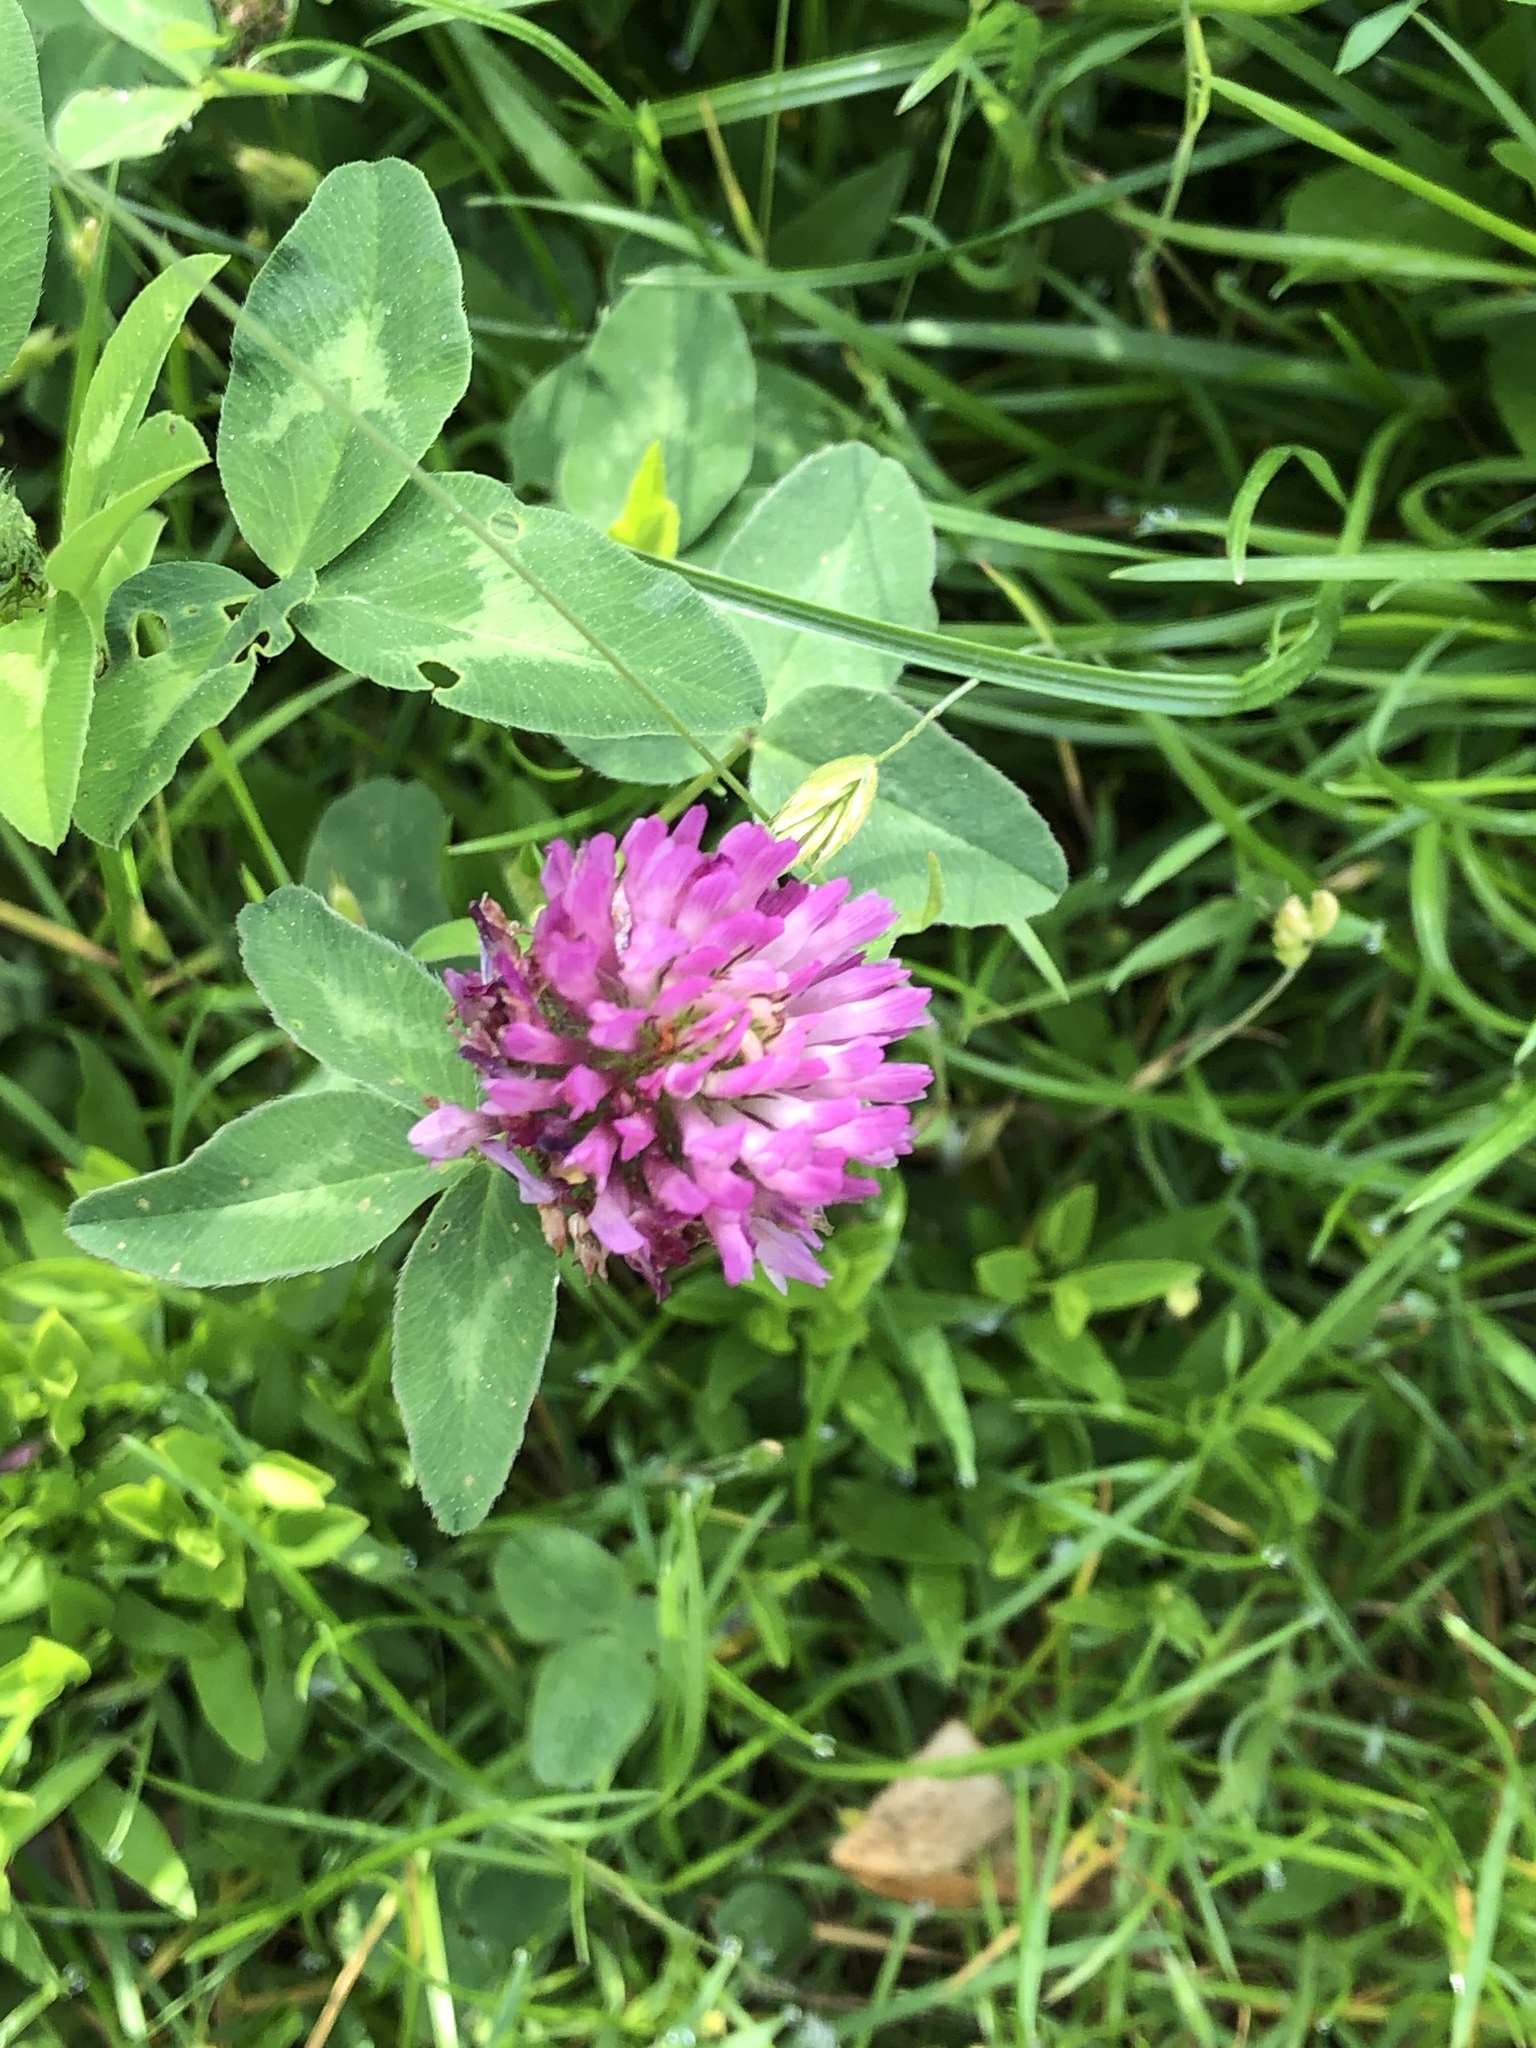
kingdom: Plantae
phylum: Tracheophyta
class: Magnoliopsida
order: Fabales
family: Fabaceae
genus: Trifolium
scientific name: Trifolium pratense
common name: Red clover
